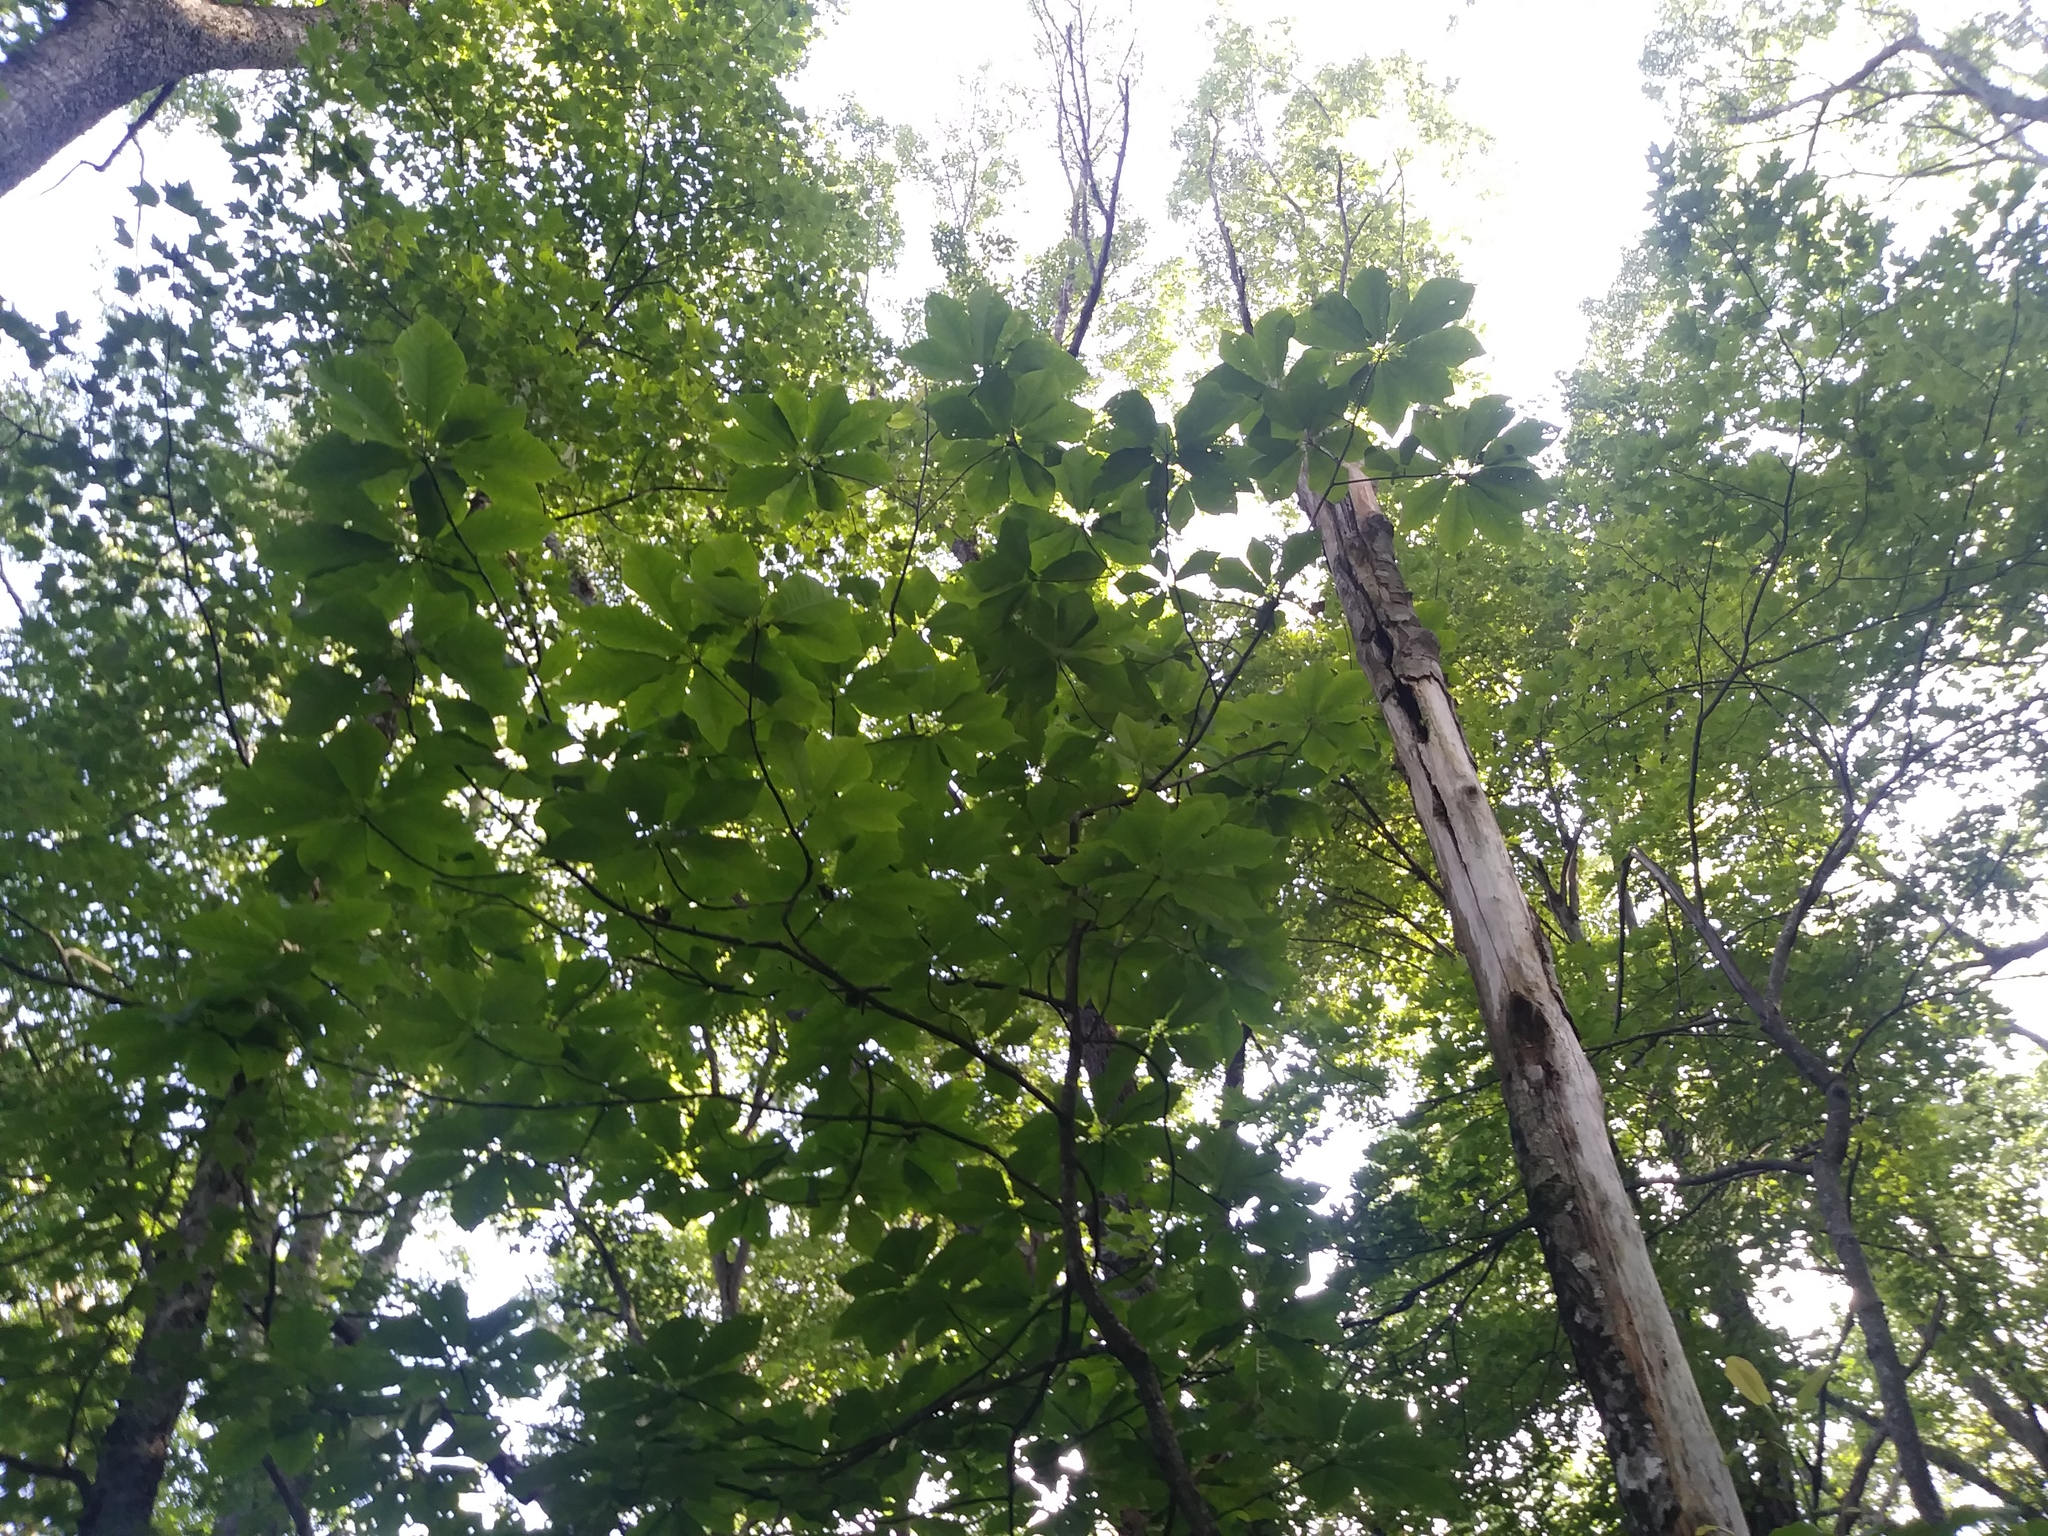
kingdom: Plantae
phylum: Tracheophyta
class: Magnoliopsida
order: Magnoliales
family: Magnoliaceae
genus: Magnolia
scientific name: Magnolia fraseri
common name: Fraser's magnolia
